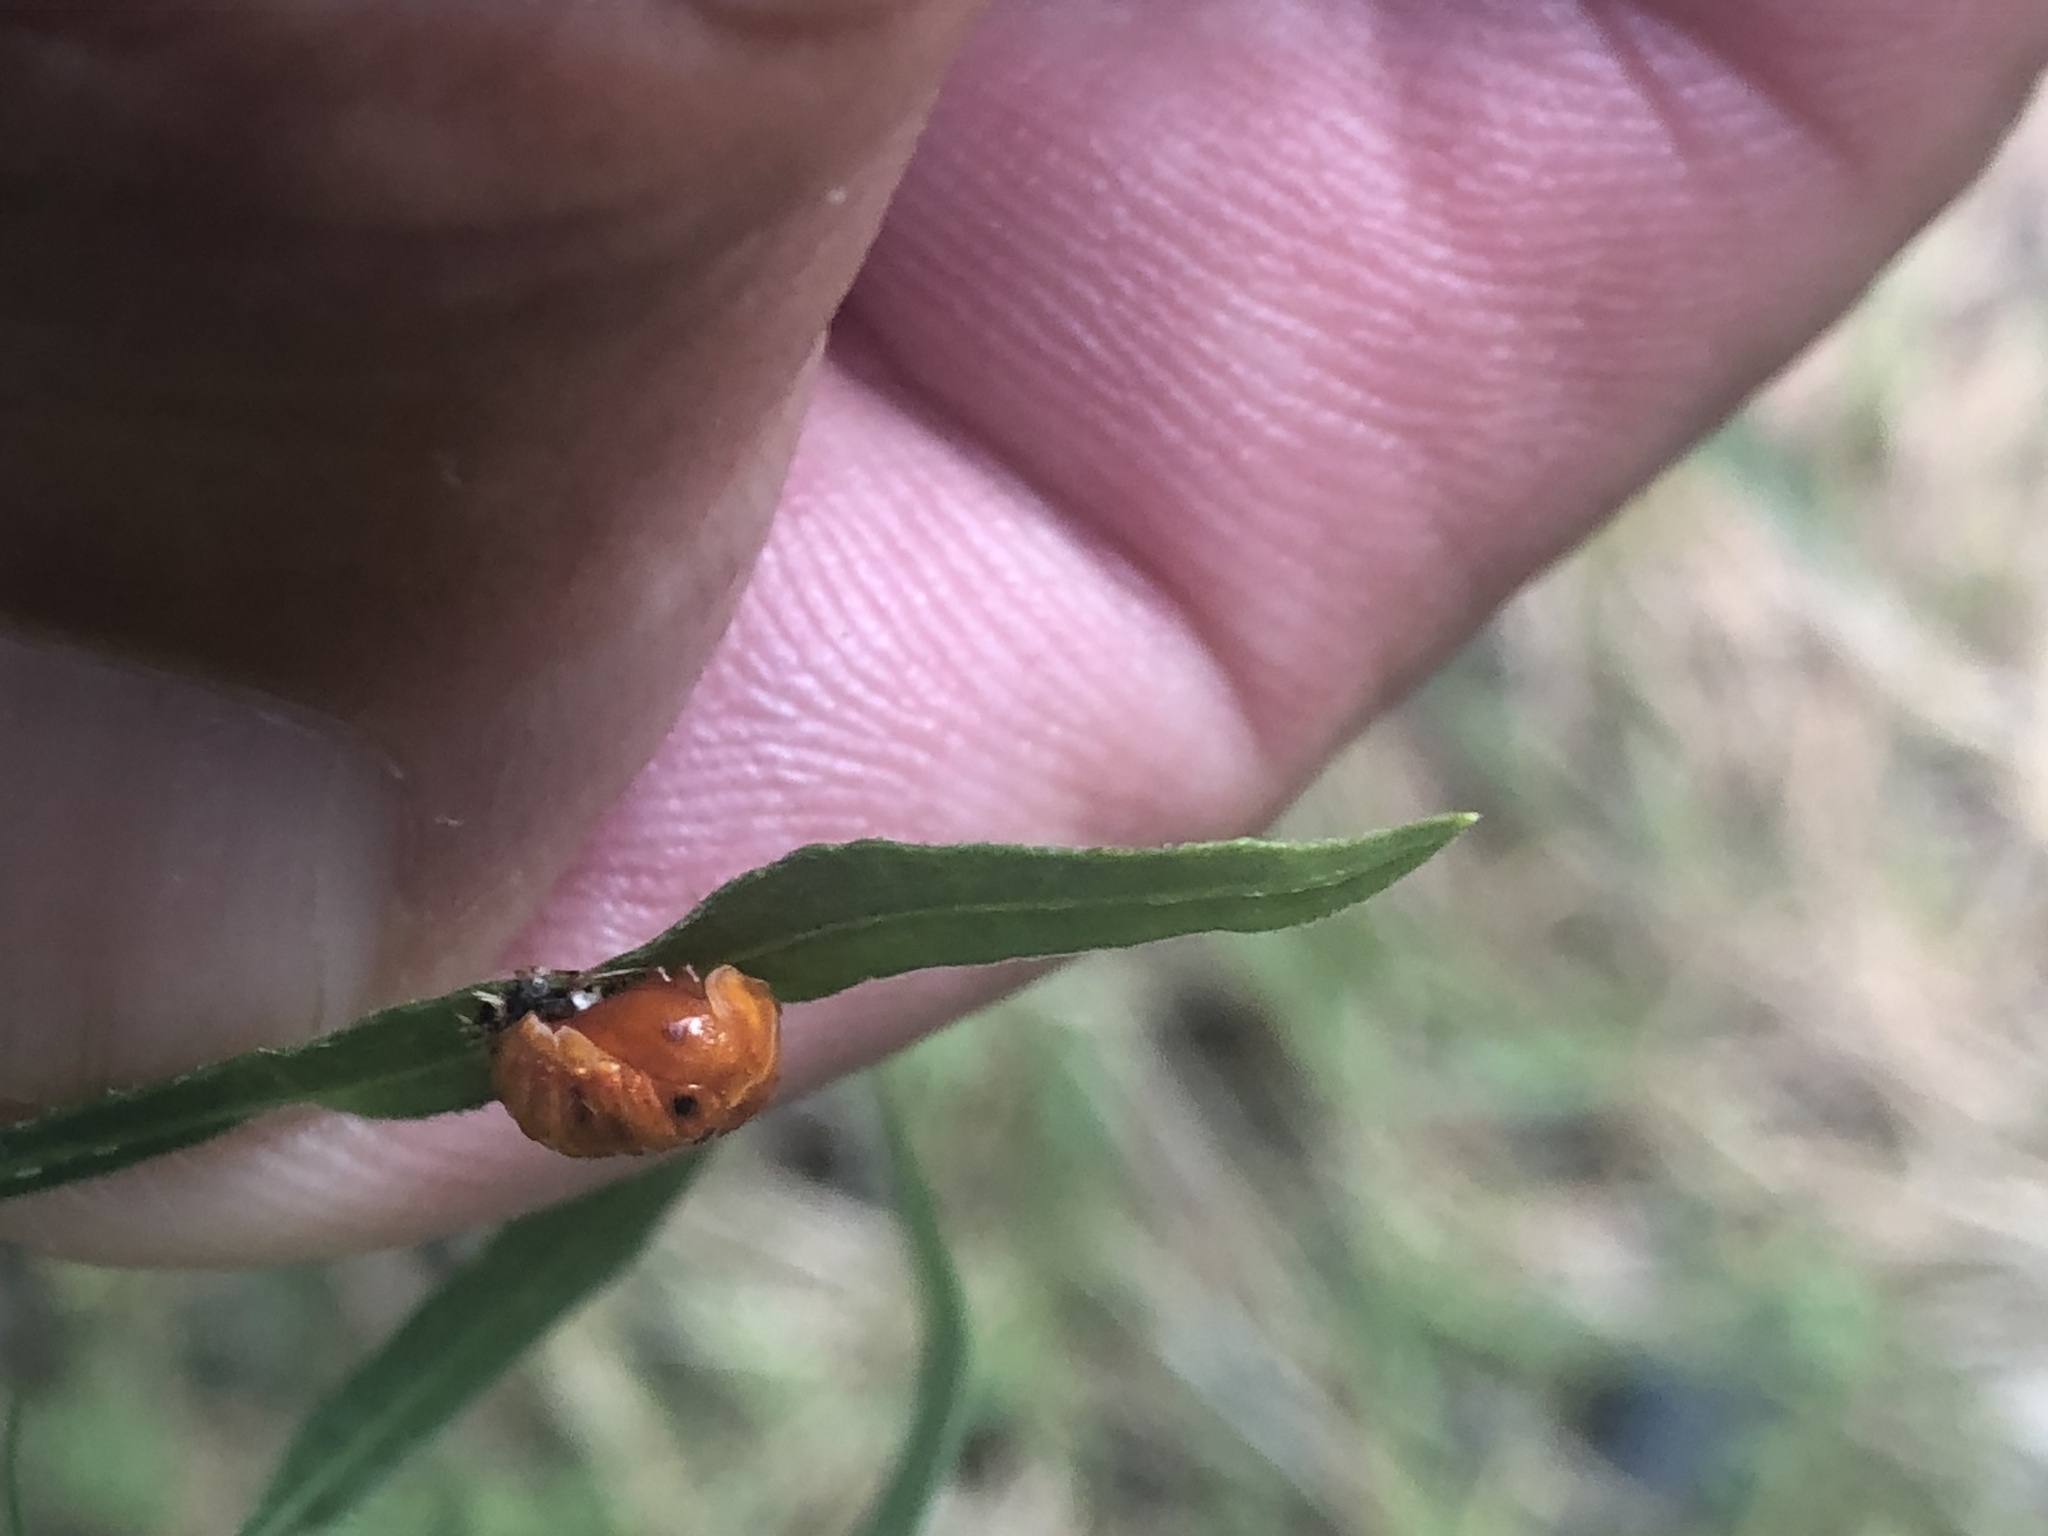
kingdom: Animalia
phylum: Arthropoda
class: Insecta
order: Coleoptera
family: Coccinellidae
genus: Harmonia
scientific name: Harmonia axyridis
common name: Harlequin ladybird
